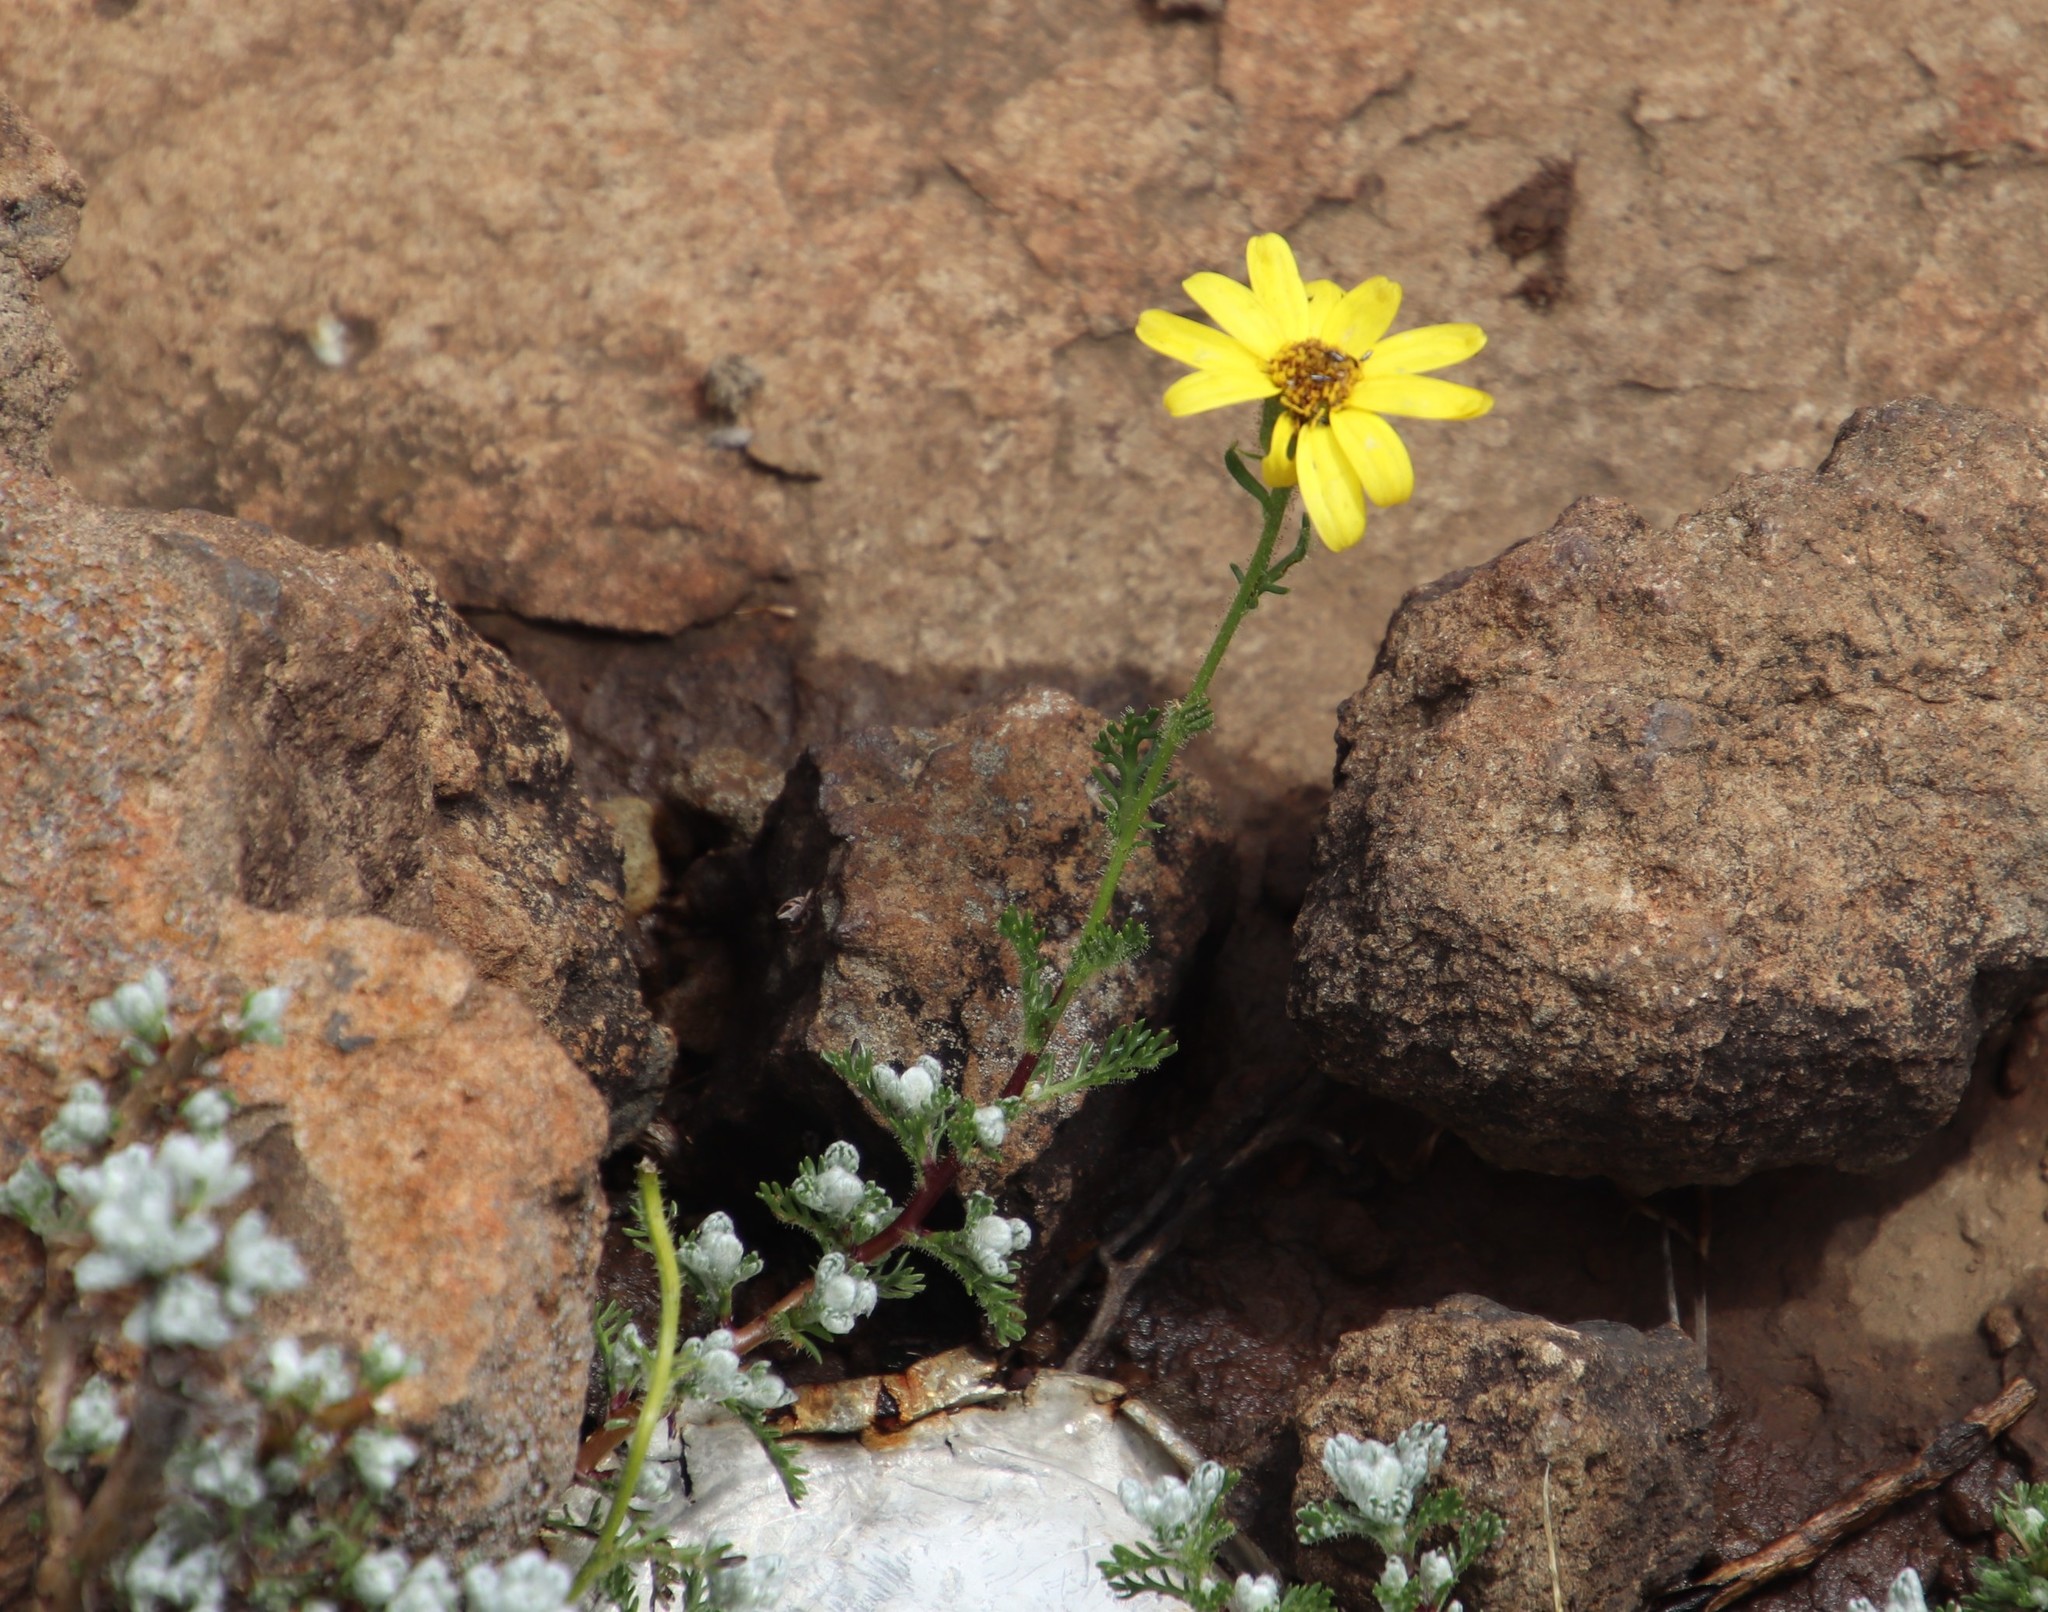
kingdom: Plantae
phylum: Tracheophyta
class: Magnoliopsida
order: Asterales
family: Asteraceae
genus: Senecio
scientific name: Senecio seminiveus
